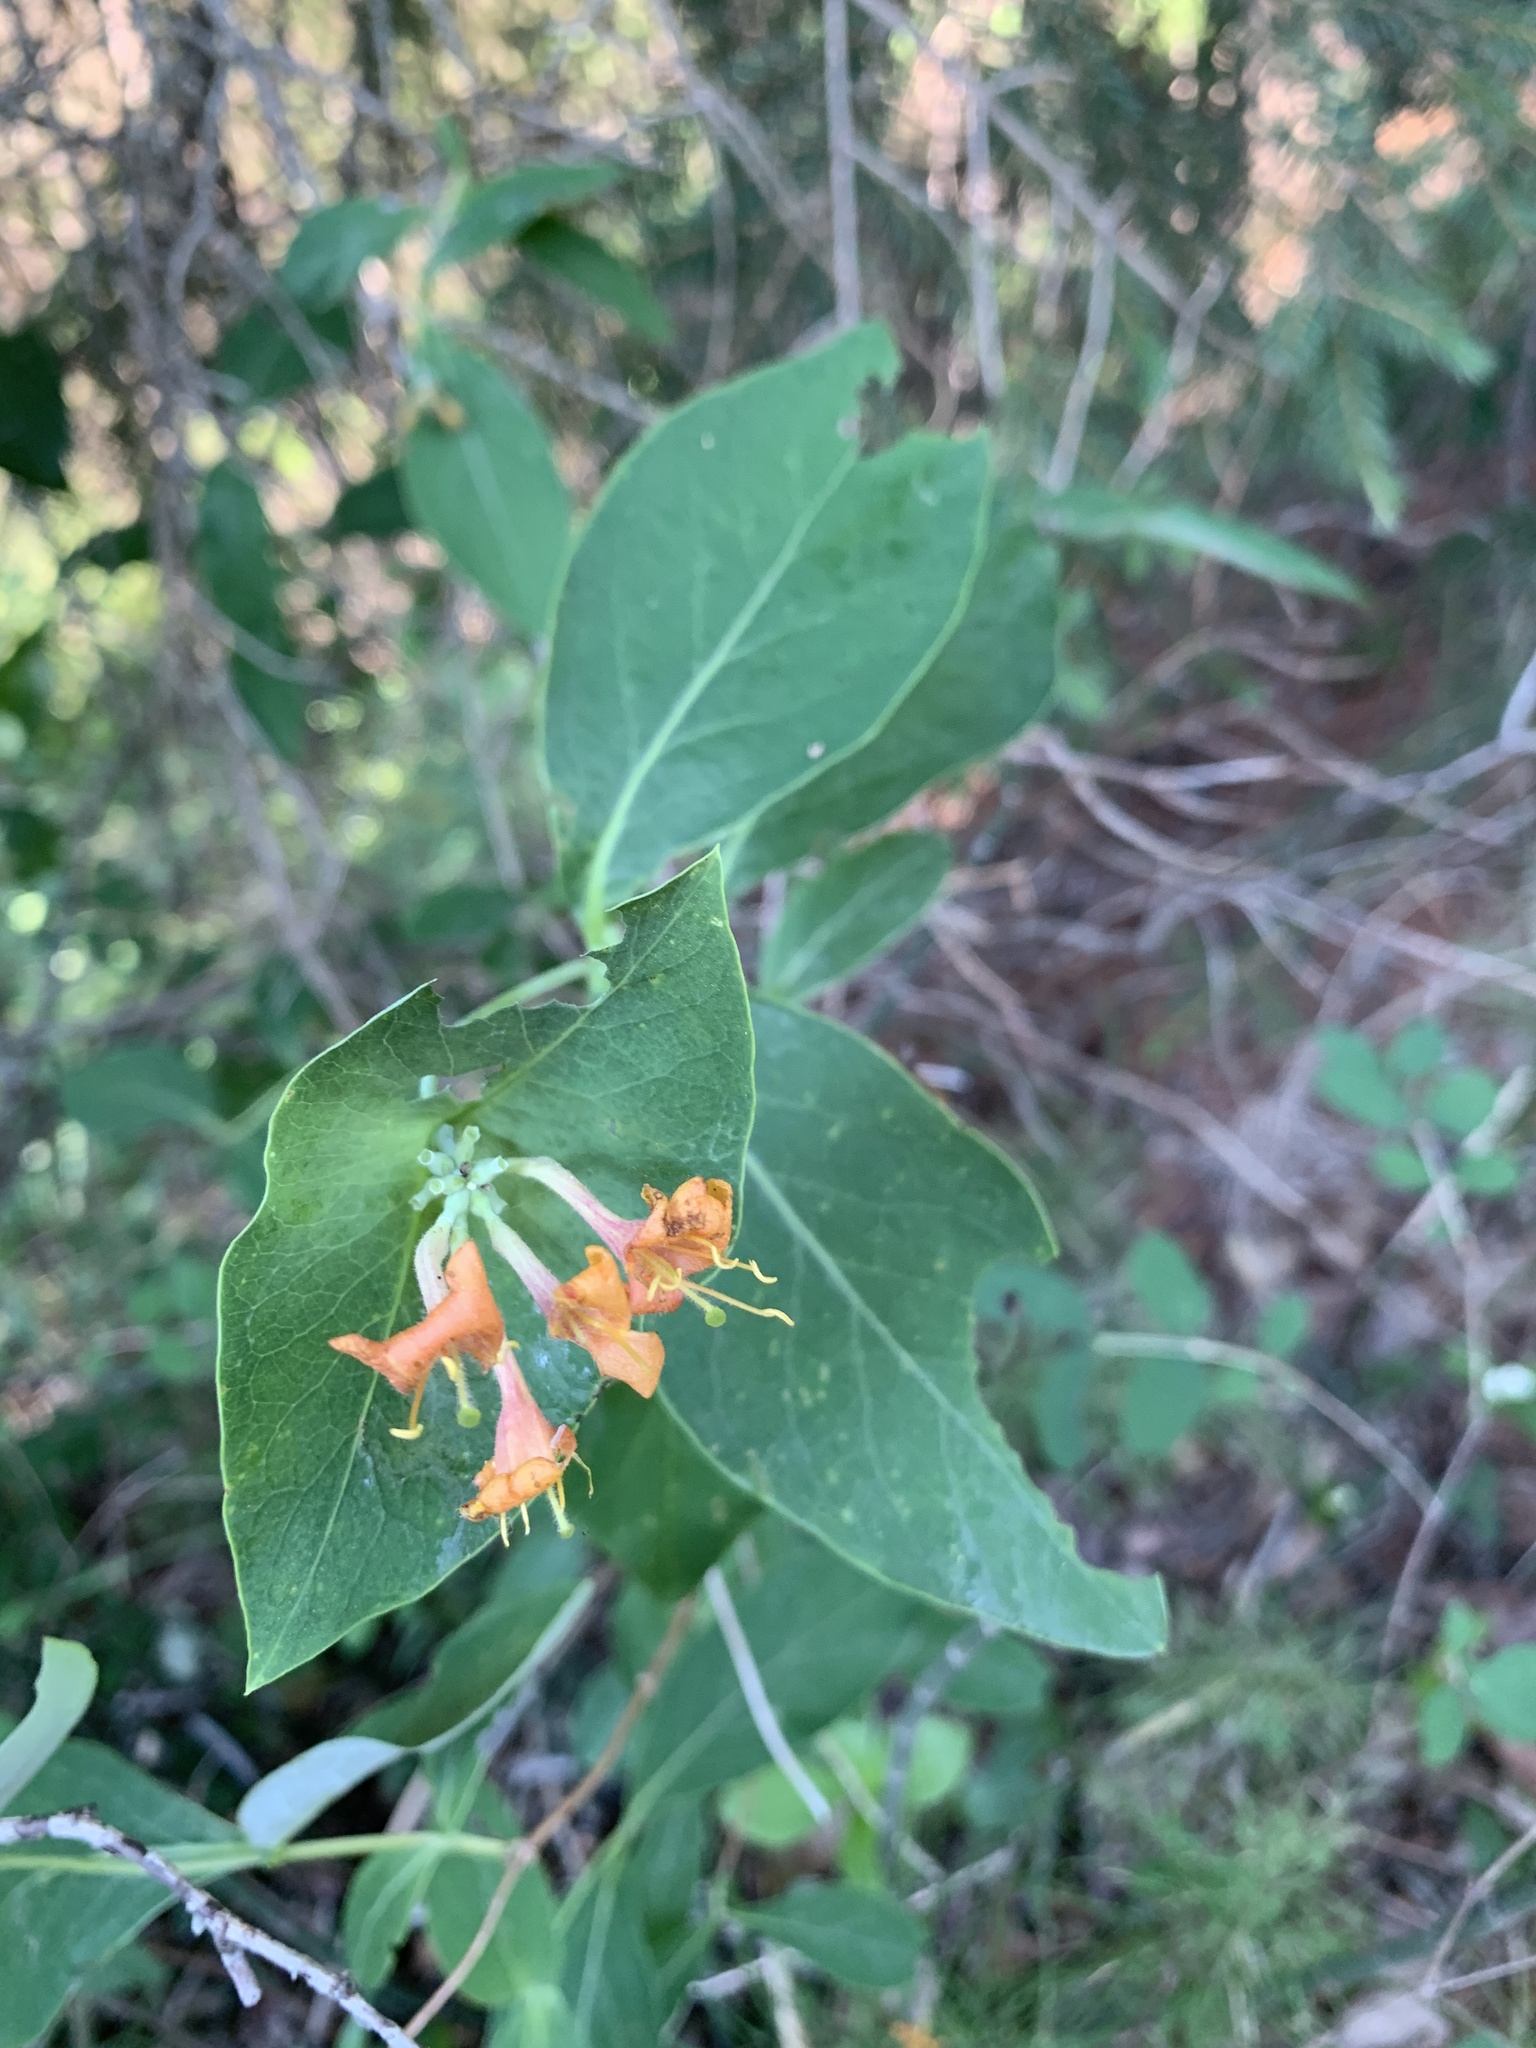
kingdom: Plantae
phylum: Tracheophyta
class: Magnoliopsida
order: Dipsacales
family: Caprifoliaceae
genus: Lonicera
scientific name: Lonicera dioica
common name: Limber honeysuckle
